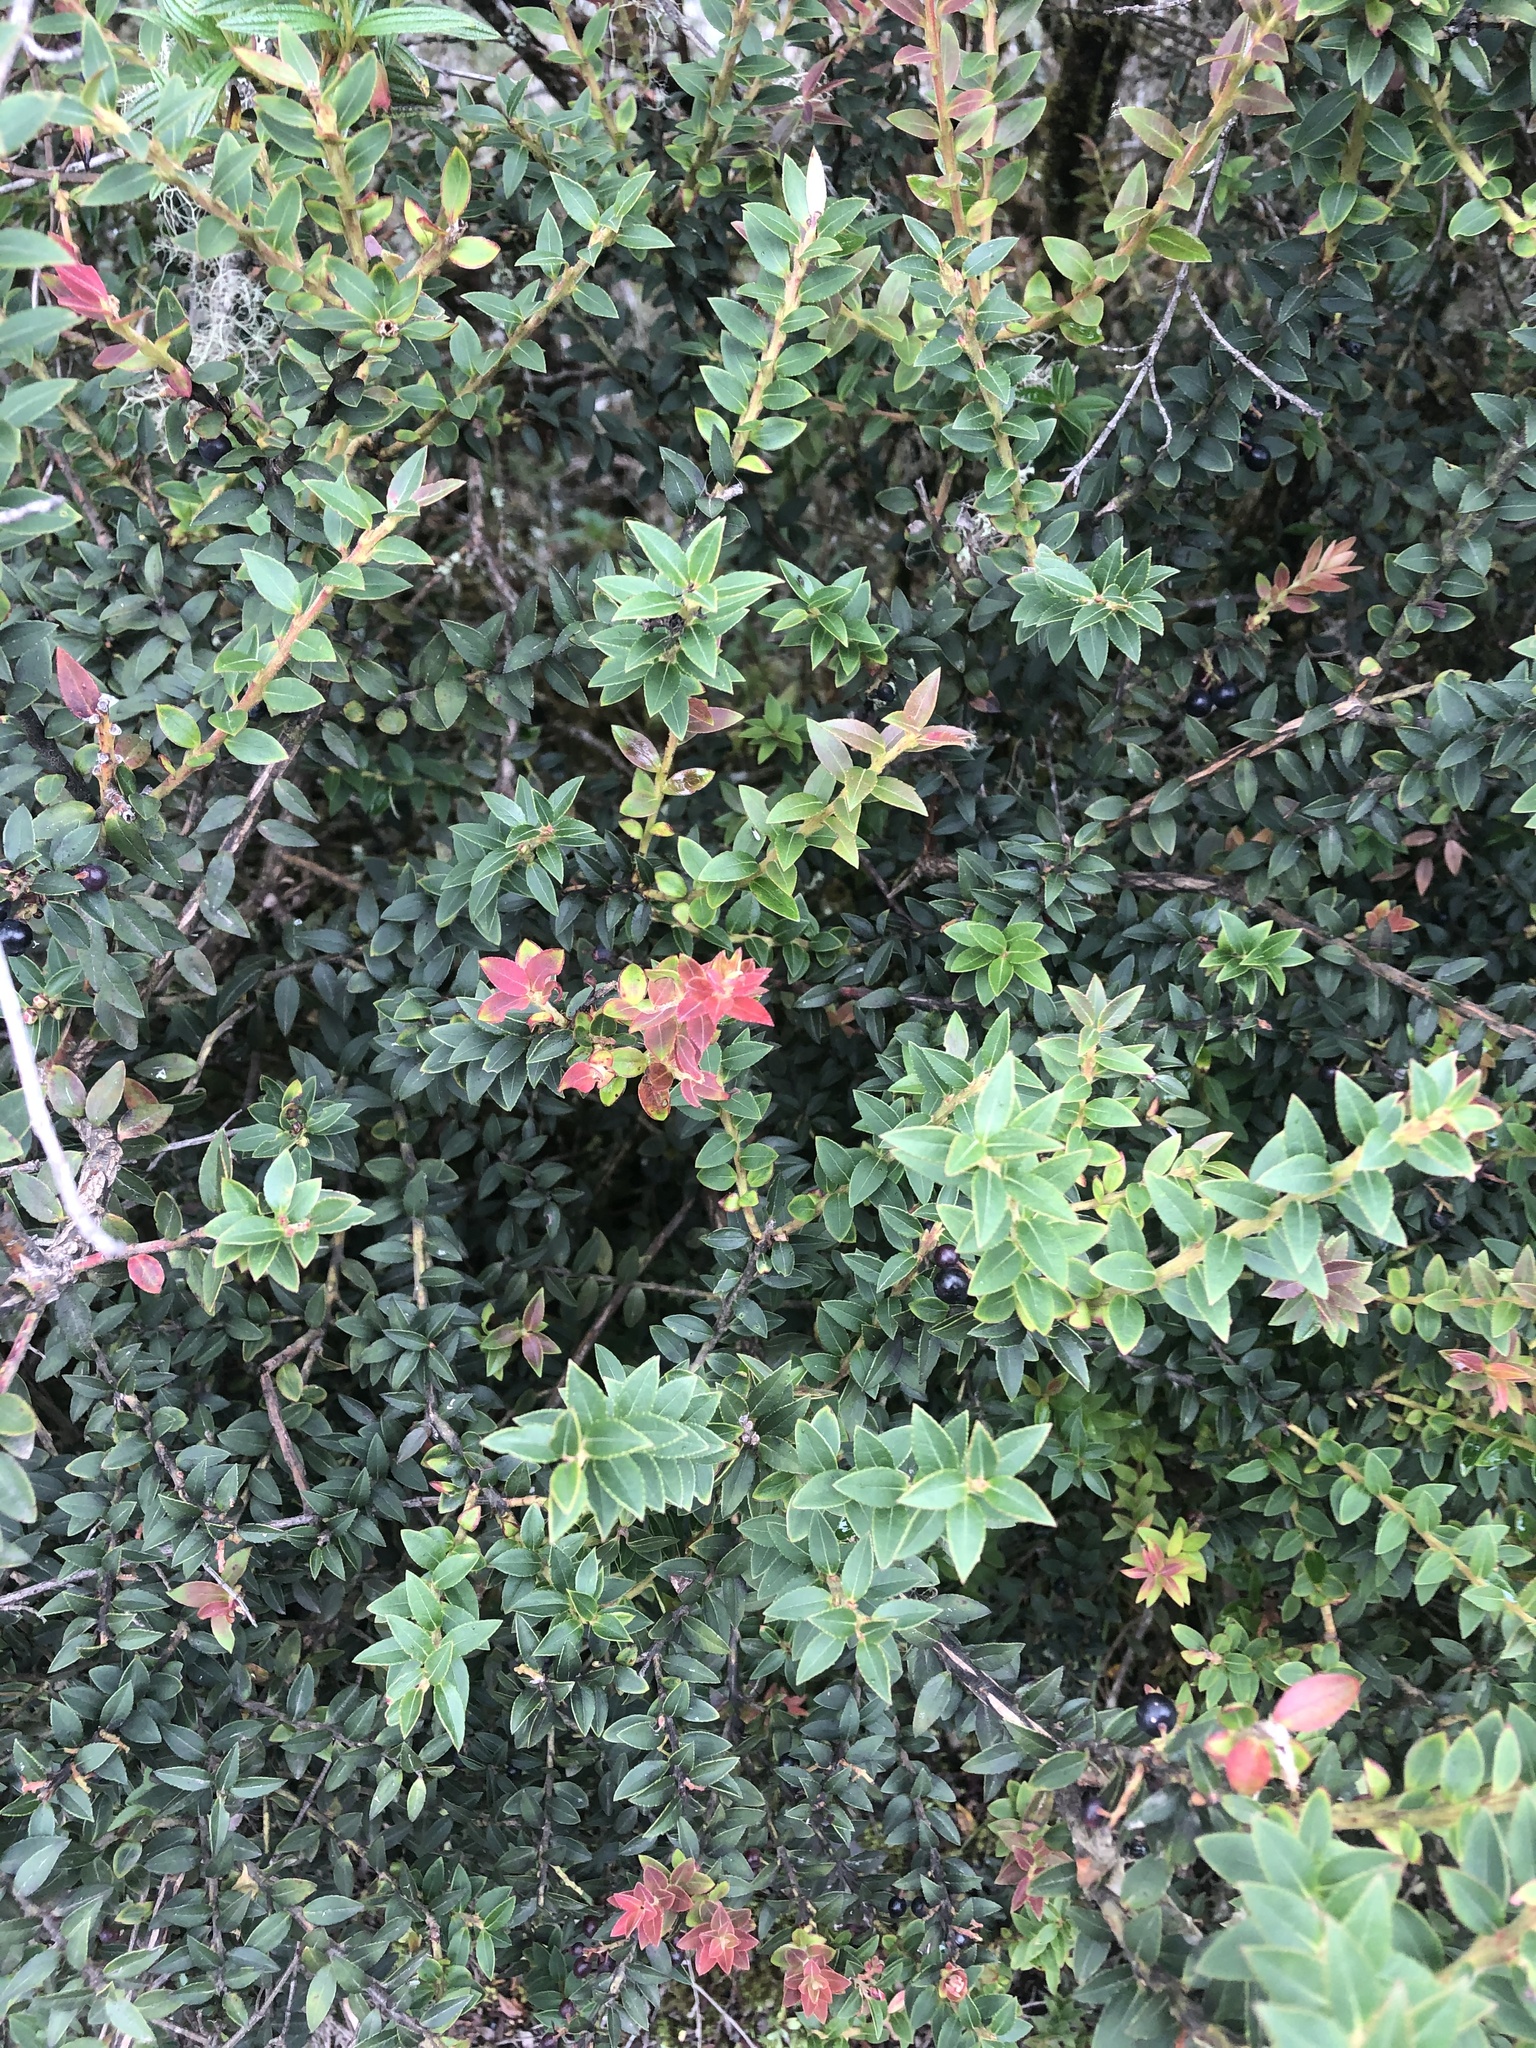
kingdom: Plantae
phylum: Tracheophyta
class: Magnoliopsida
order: Ericales
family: Ericaceae
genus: Vaccinium
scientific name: Vaccinium floribundum
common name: Colombian blueberry
